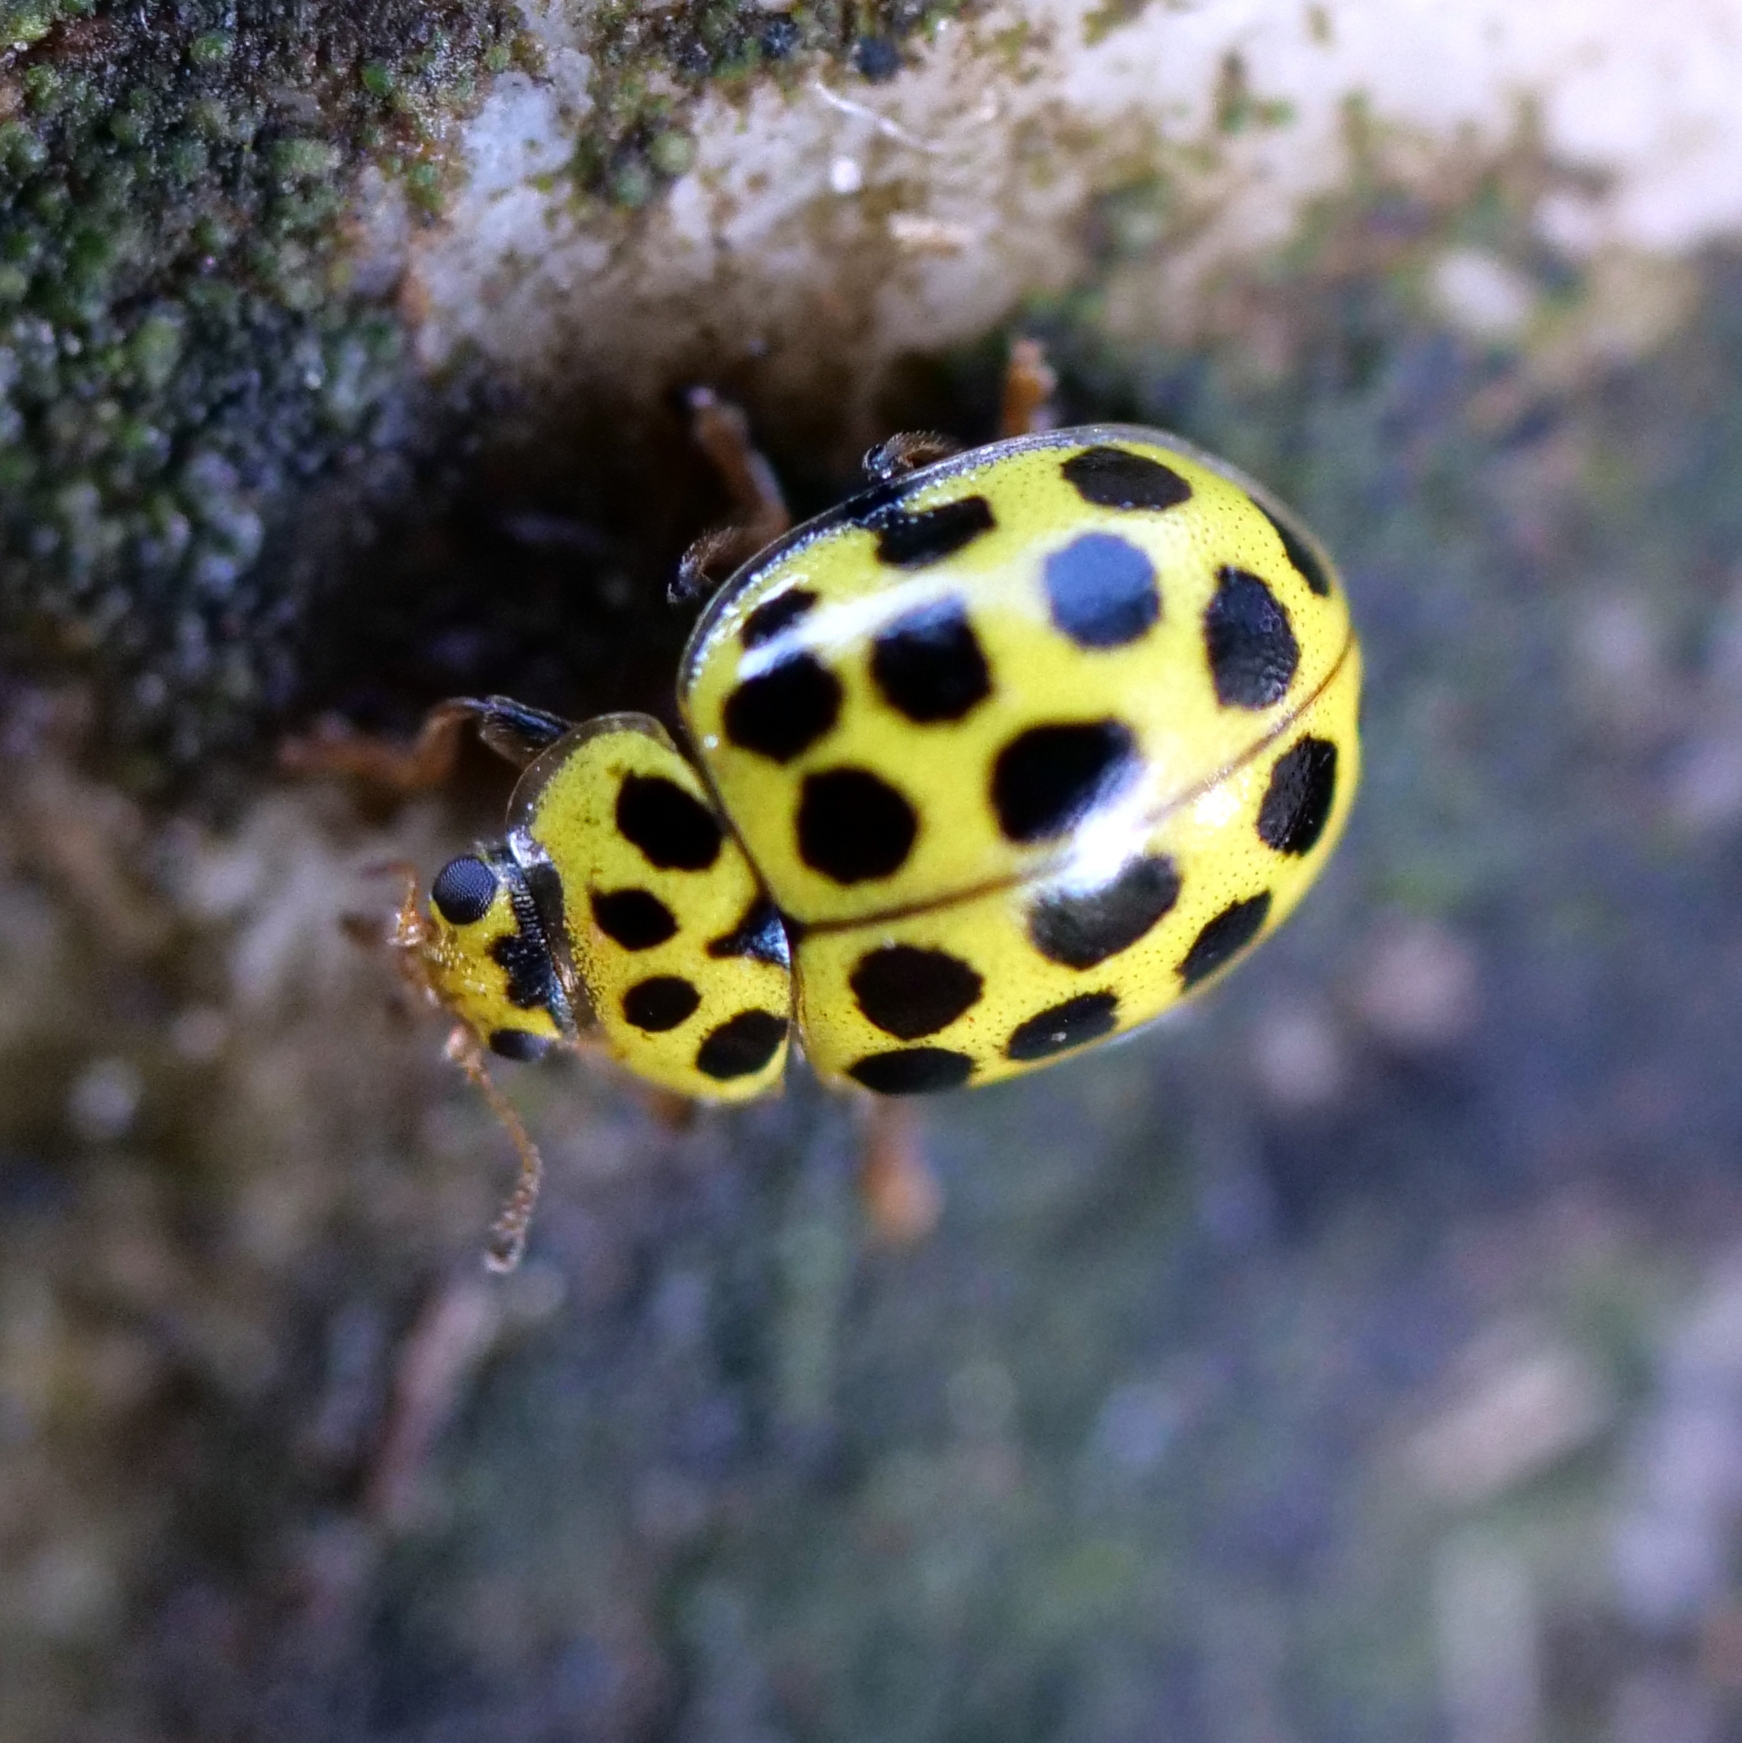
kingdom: Animalia
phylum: Arthropoda
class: Insecta
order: Coleoptera
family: Coccinellidae
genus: Psyllobora
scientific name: Psyllobora vigintiduopunctata
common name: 22-spot ladybird
